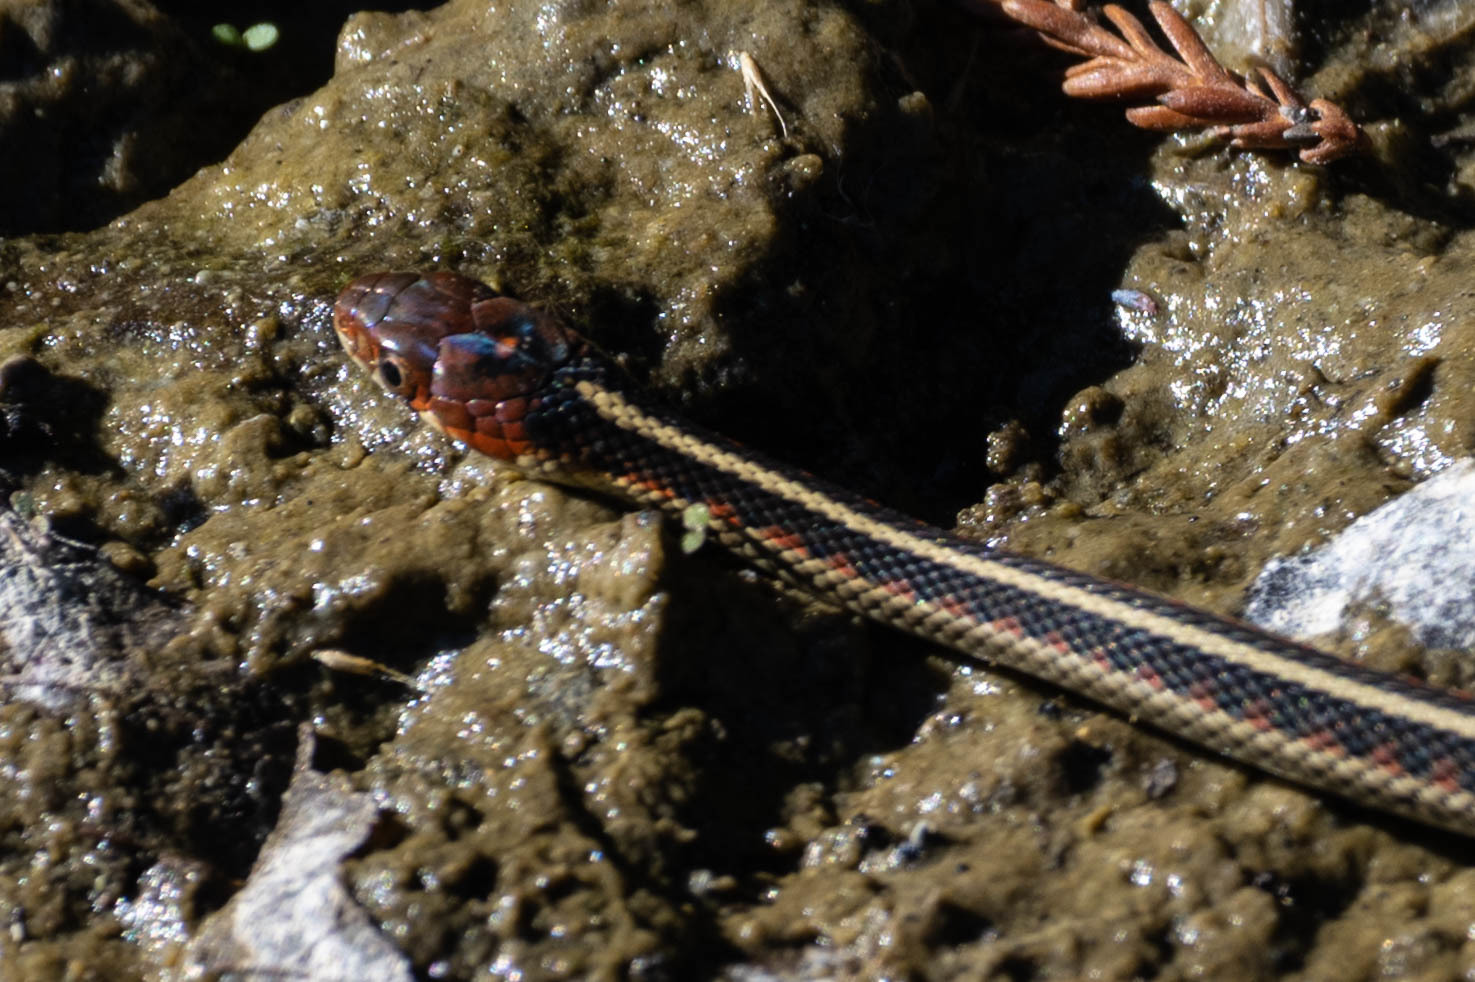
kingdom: Animalia
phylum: Chordata
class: Squamata
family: Colubridae
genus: Thamnophis
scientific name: Thamnophis sirtalis
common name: Common garter snake
